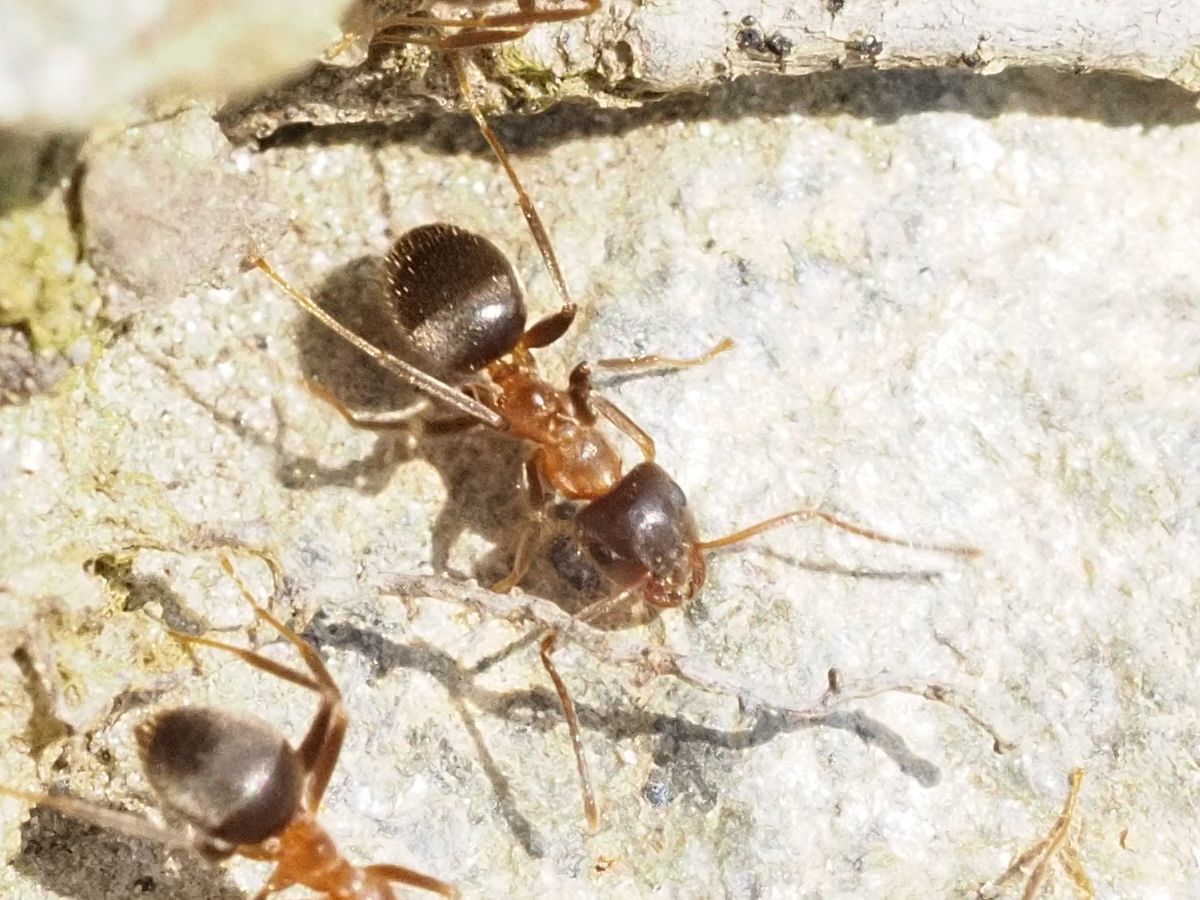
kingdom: Animalia
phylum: Arthropoda
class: Insecta
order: Hymenoptera
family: Formicidae
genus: Lasius
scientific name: Lasius emarginatus
